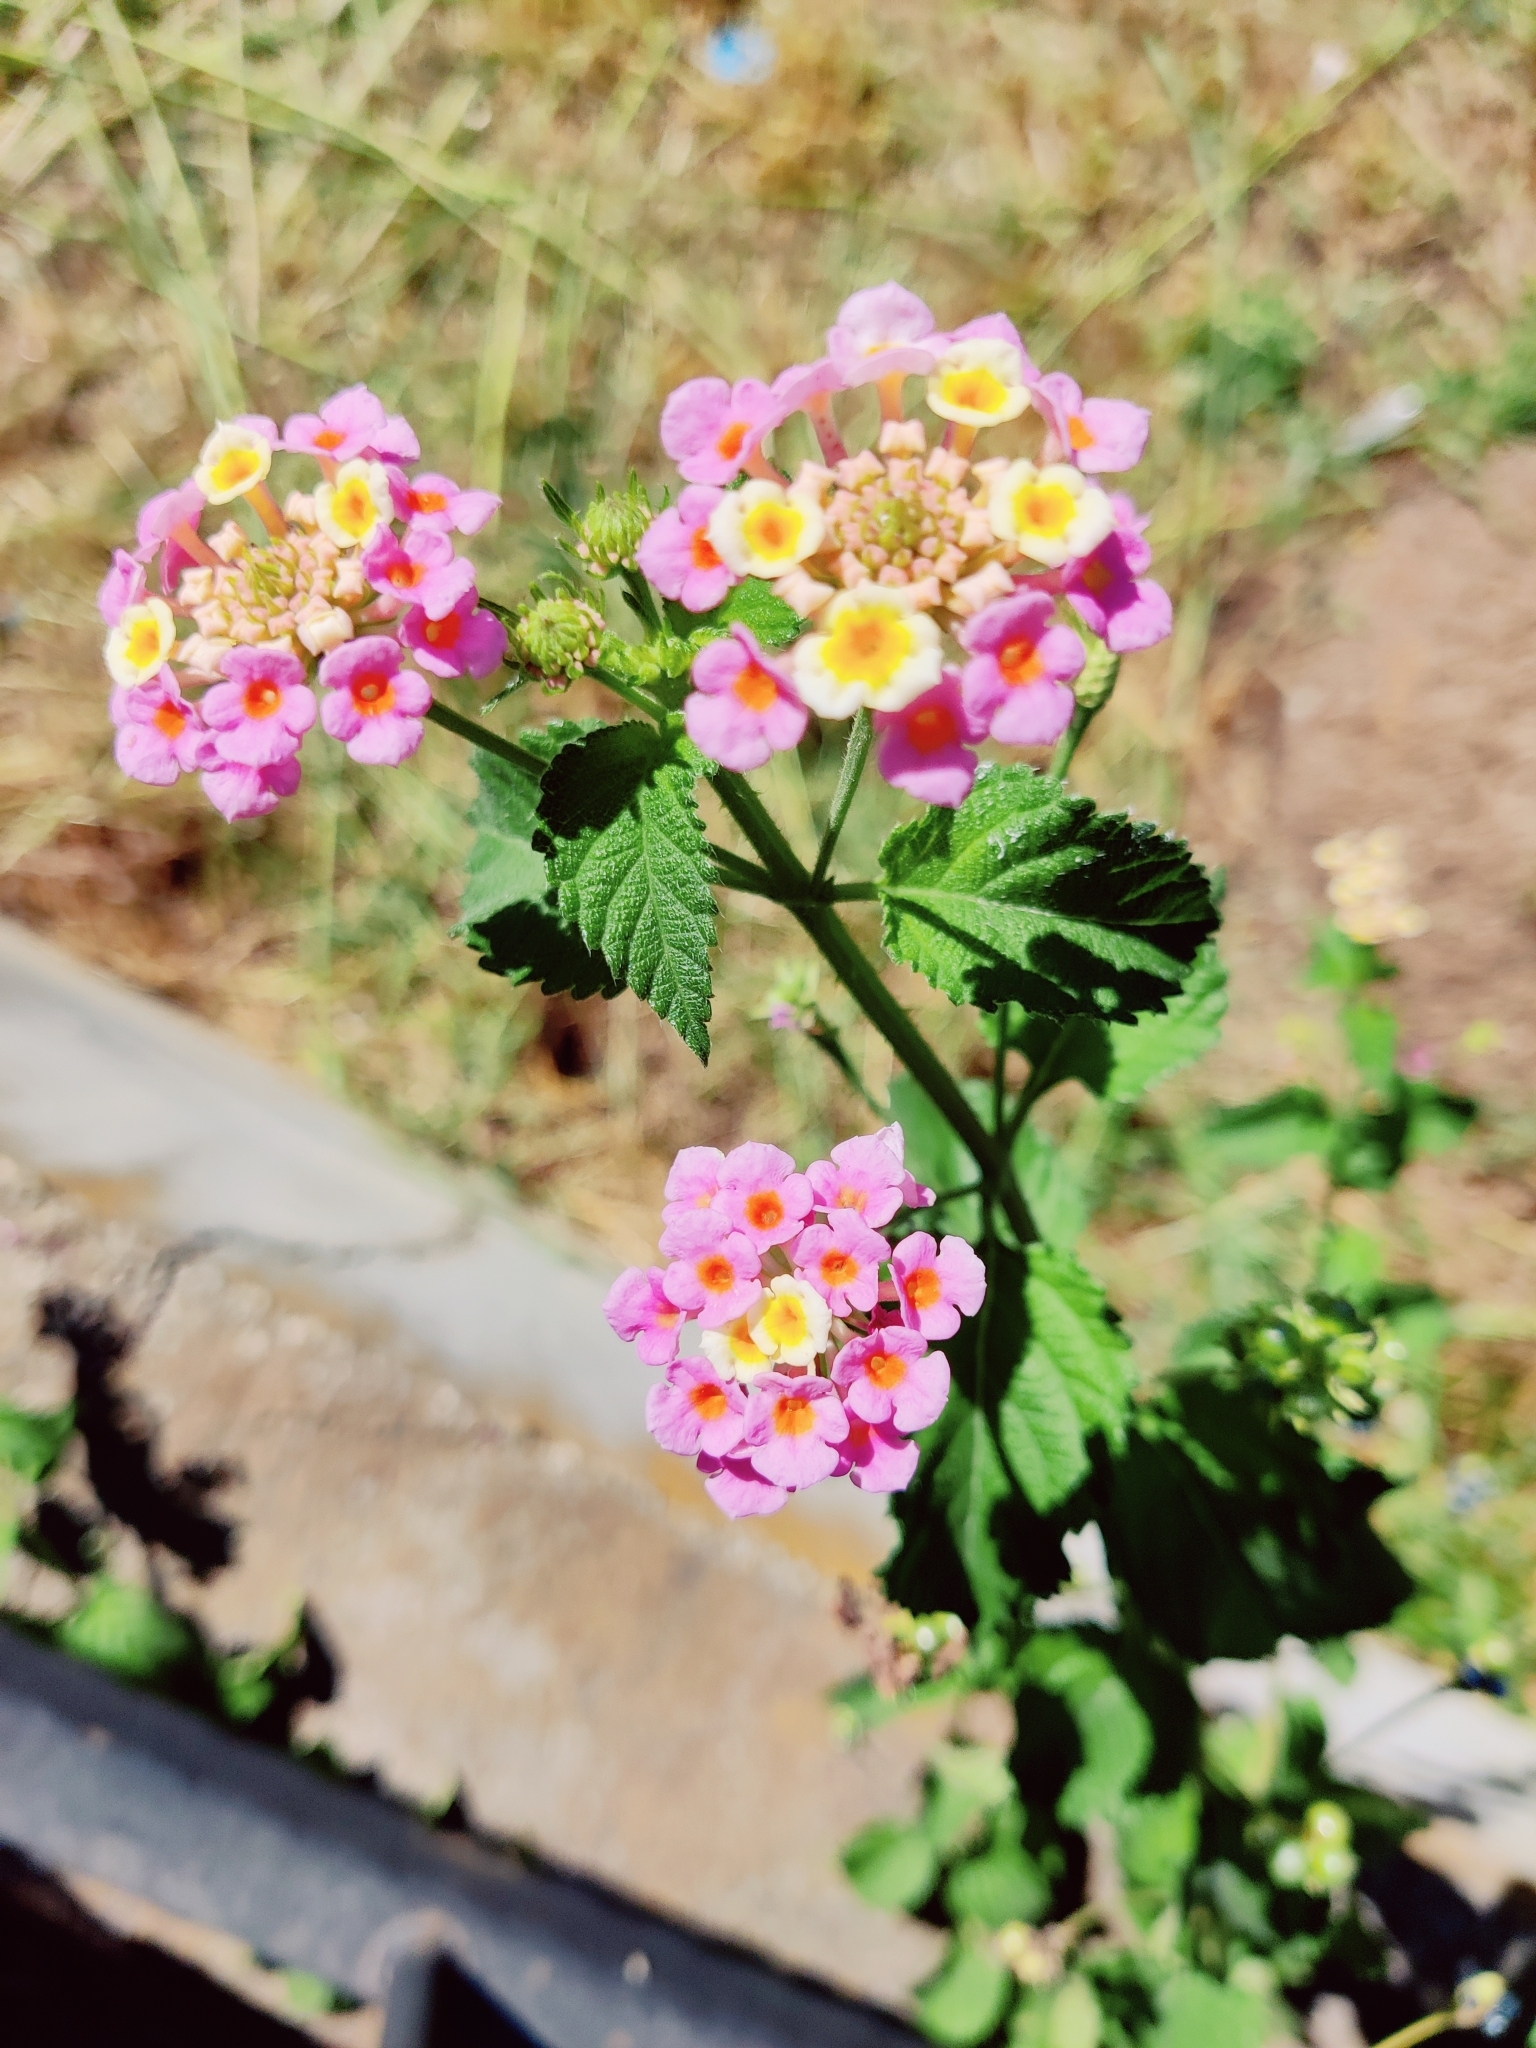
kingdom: Plantae
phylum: Tracheophyta
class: Magnoliopsida
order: Lamiales
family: Verbenaceae
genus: Lantana
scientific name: Lantana camara
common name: Lantana
